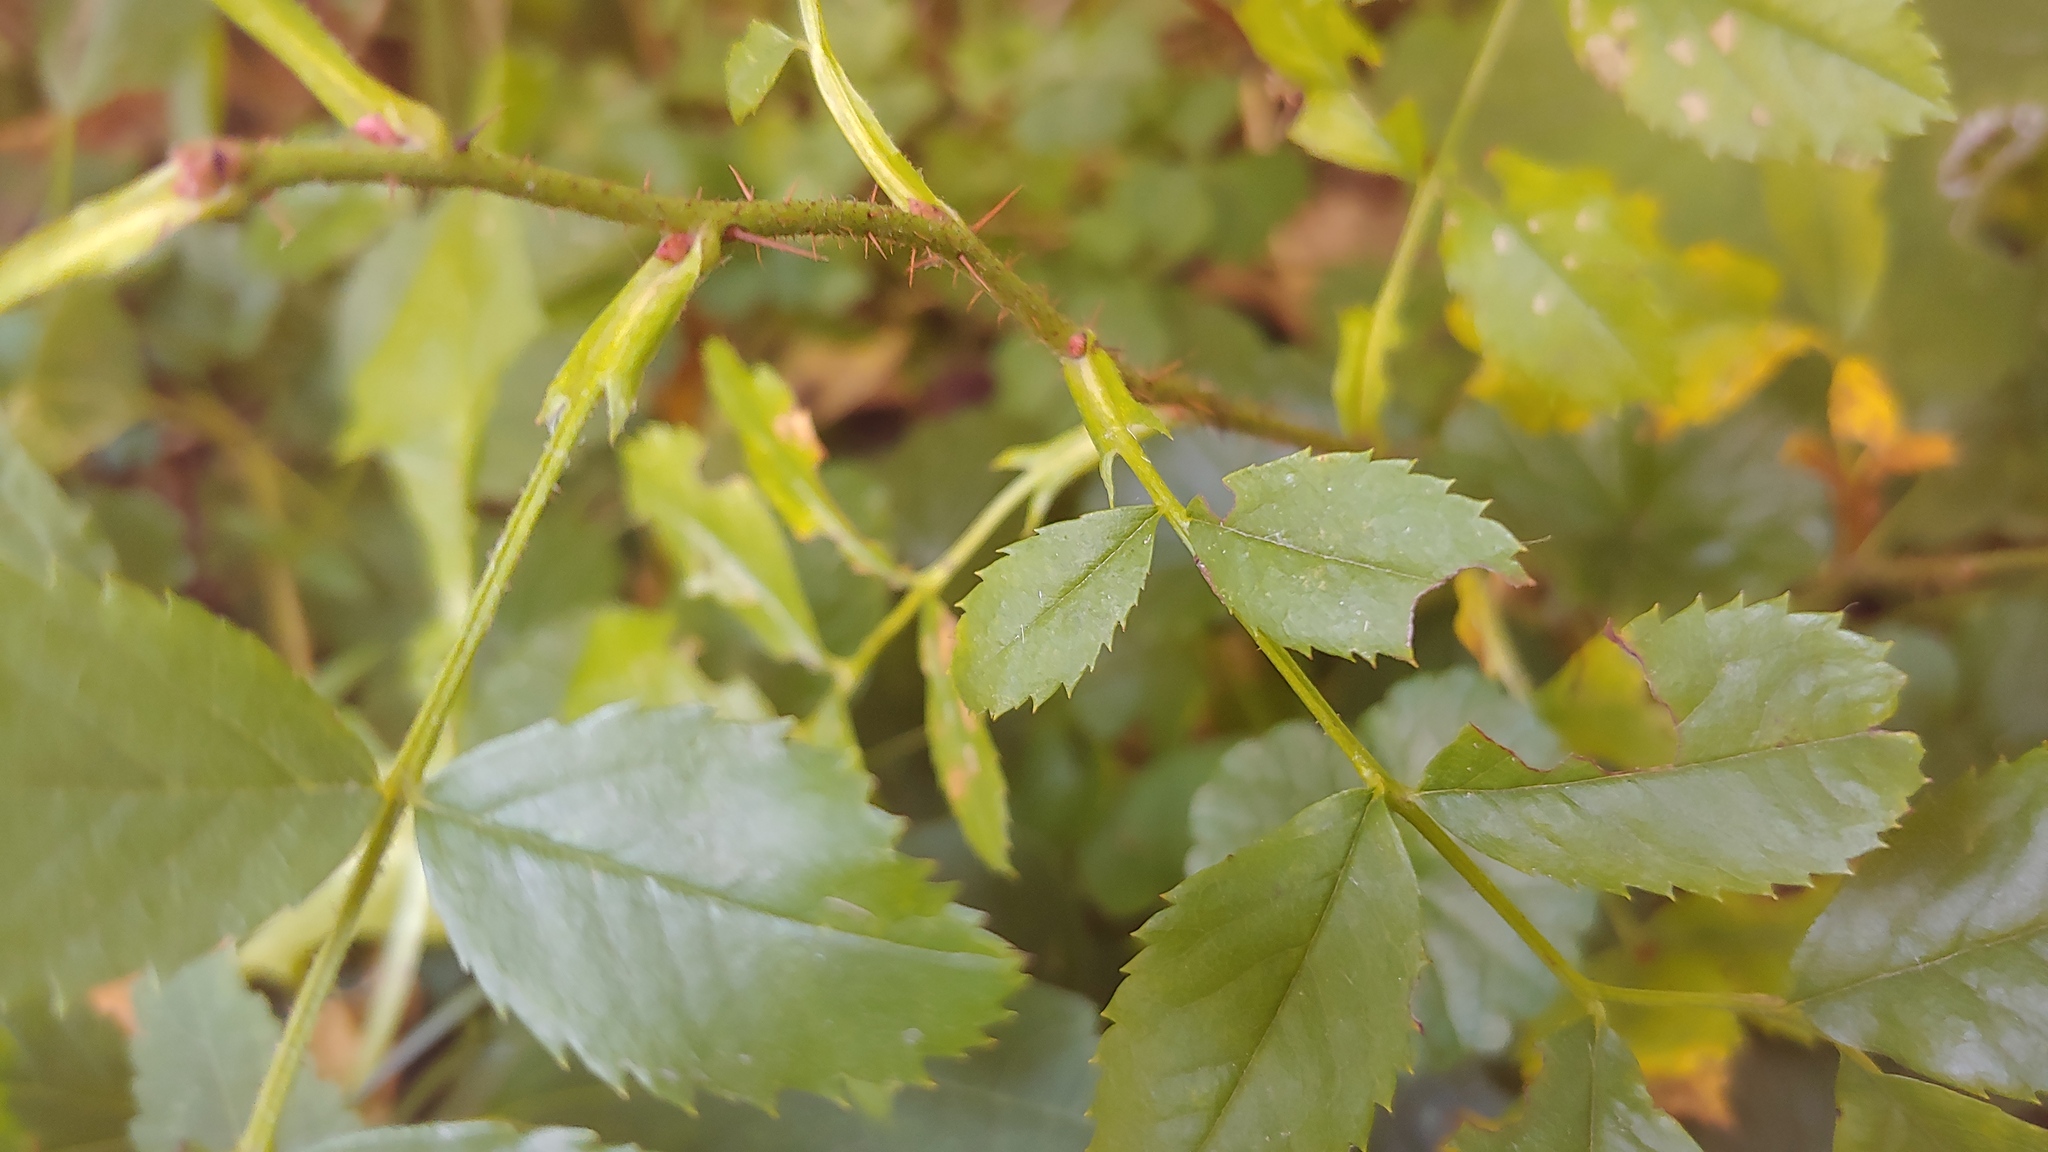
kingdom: Plantae
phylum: Tracheophyta
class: Magnoliopsida
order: Rosales
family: Rosaceae
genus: Rosa
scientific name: Rosa carolina
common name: Pasture rose
